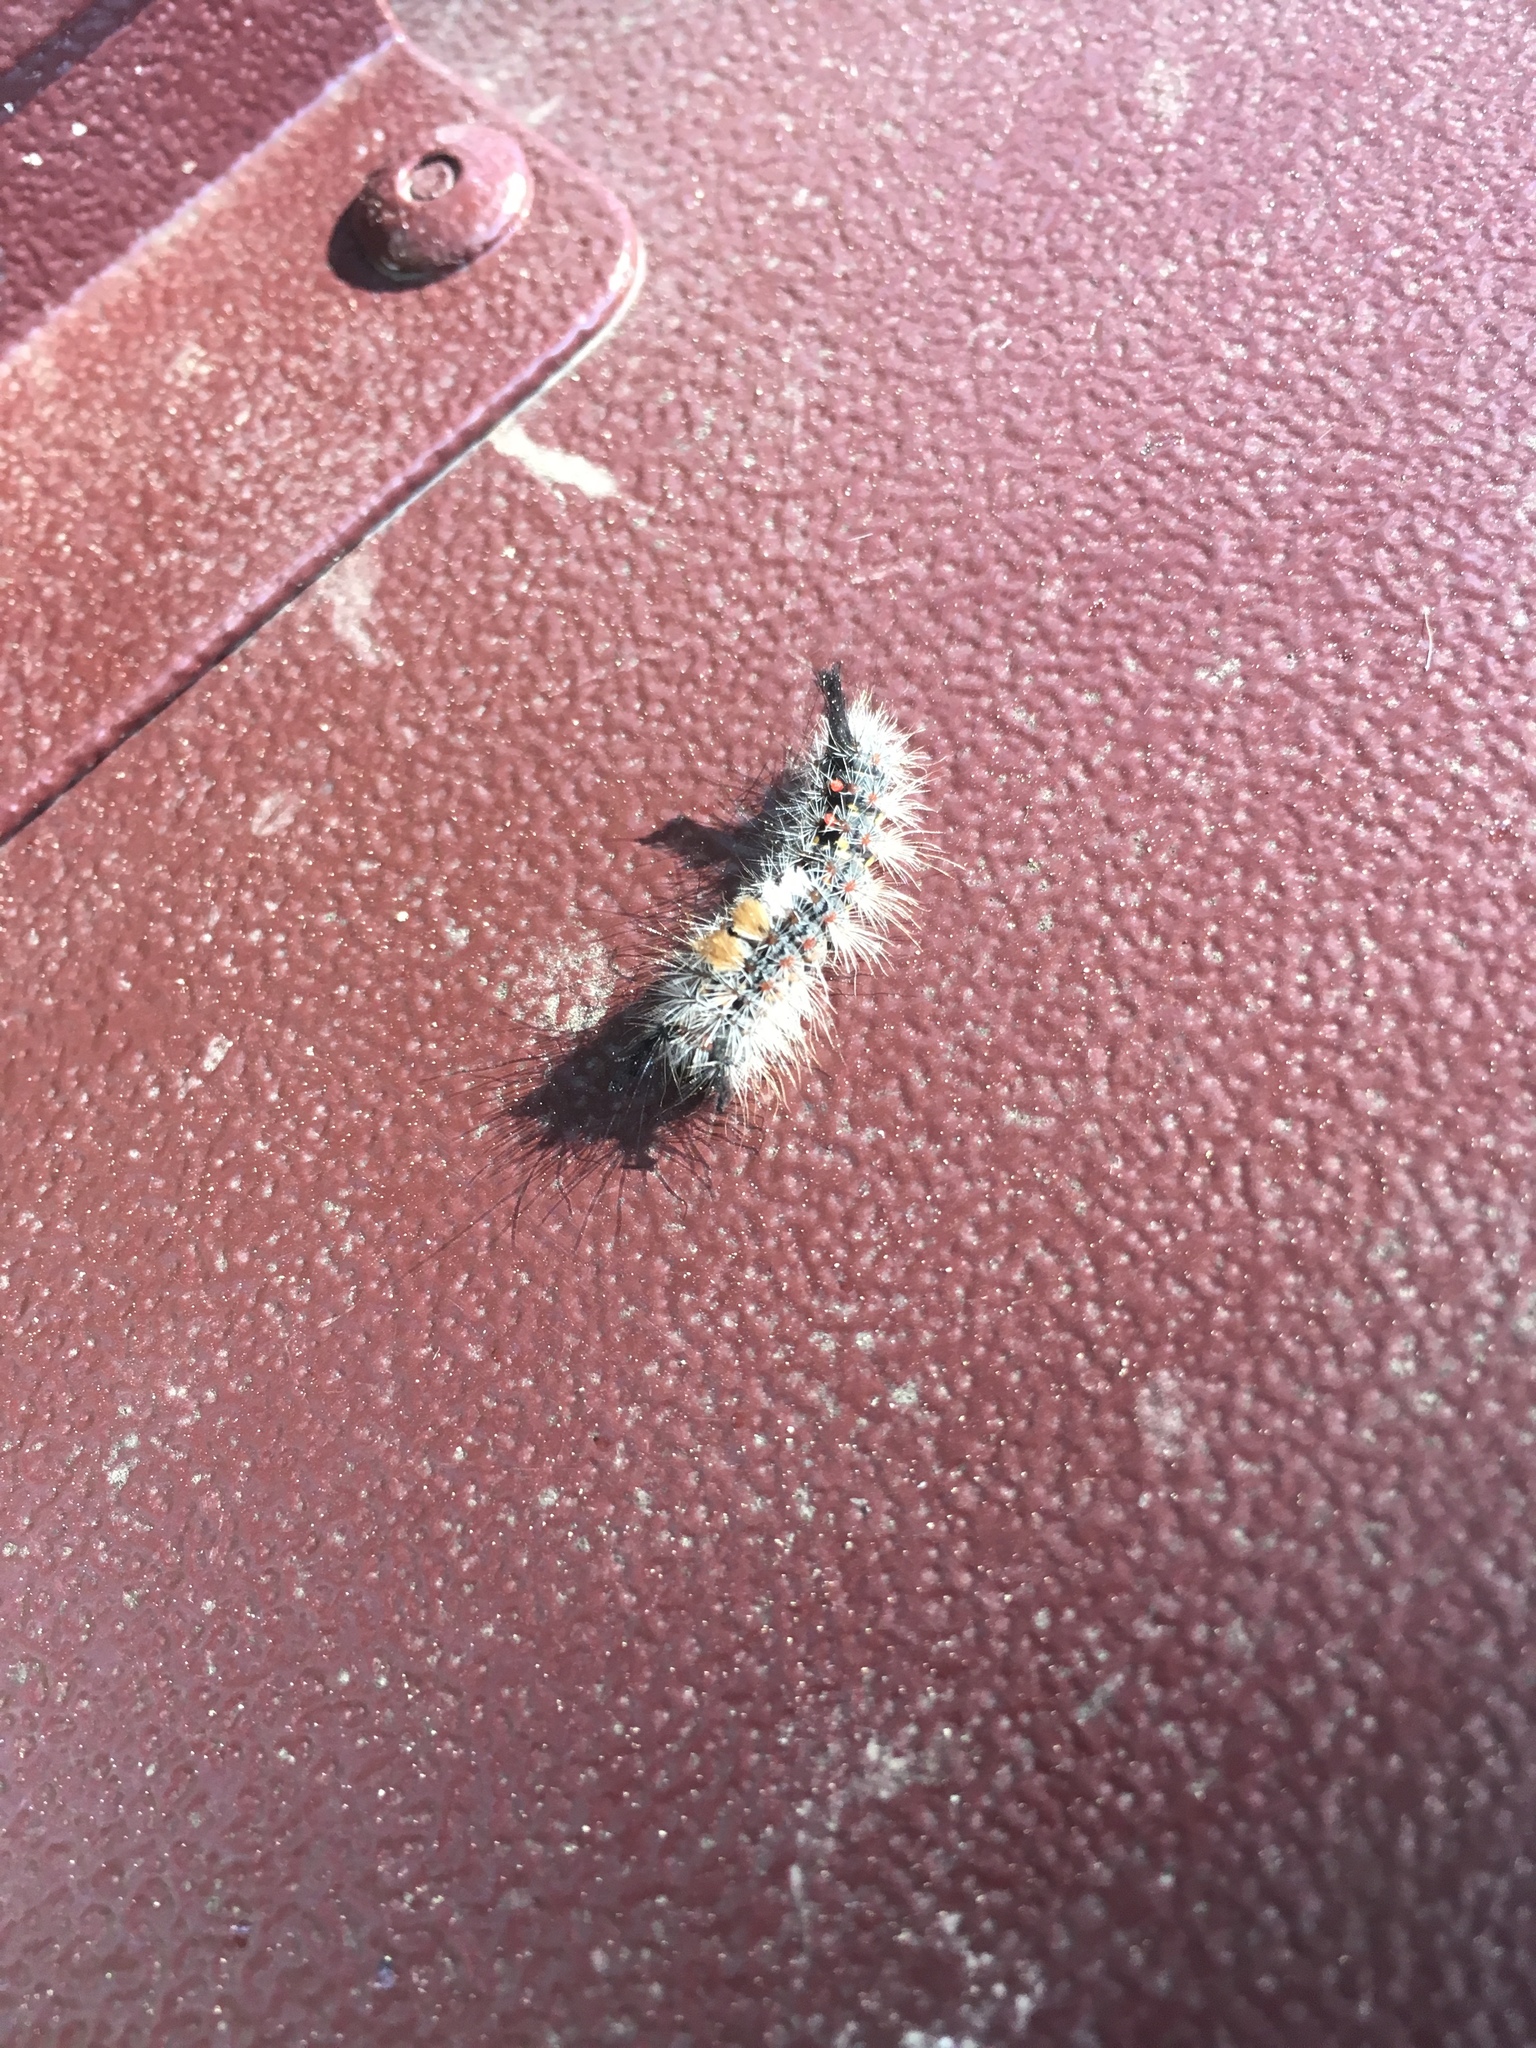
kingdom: Animalia
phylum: Arthropoda
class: Insecta
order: Lepidoptera
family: Erebidae
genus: Orgyia
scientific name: Orgyia vetusta
